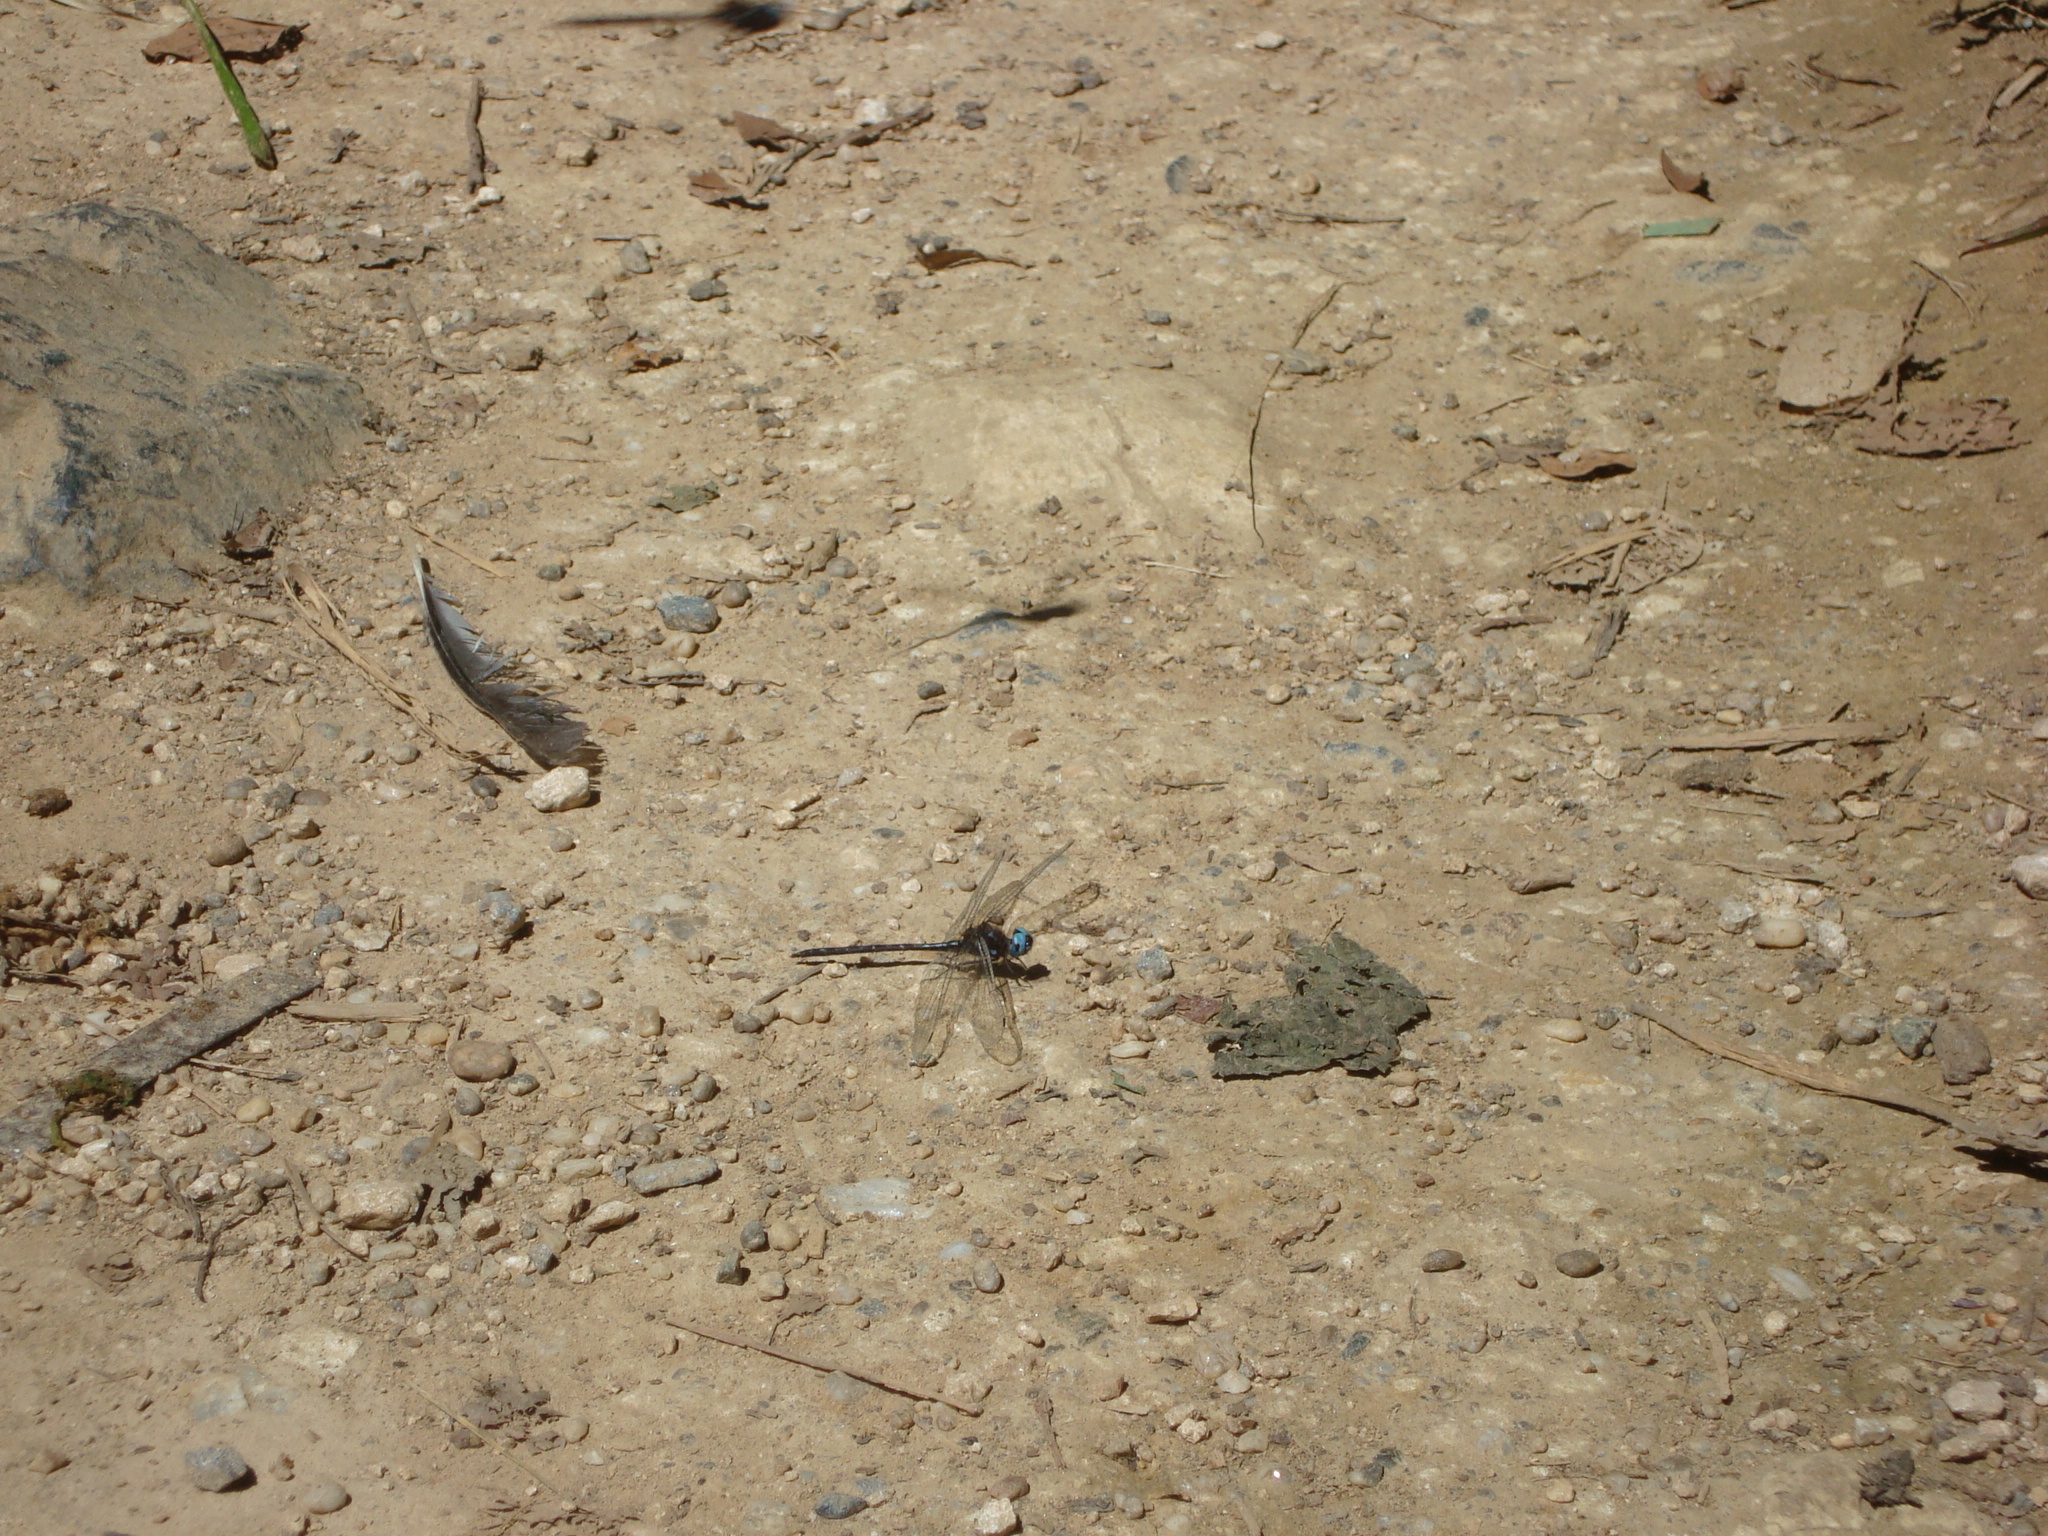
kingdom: Animalia
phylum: Arthropoda
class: Insecta
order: Odonata
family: Libellulidae
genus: Macrothemis
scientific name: Macrothemis celeno
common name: Antillean sylph
